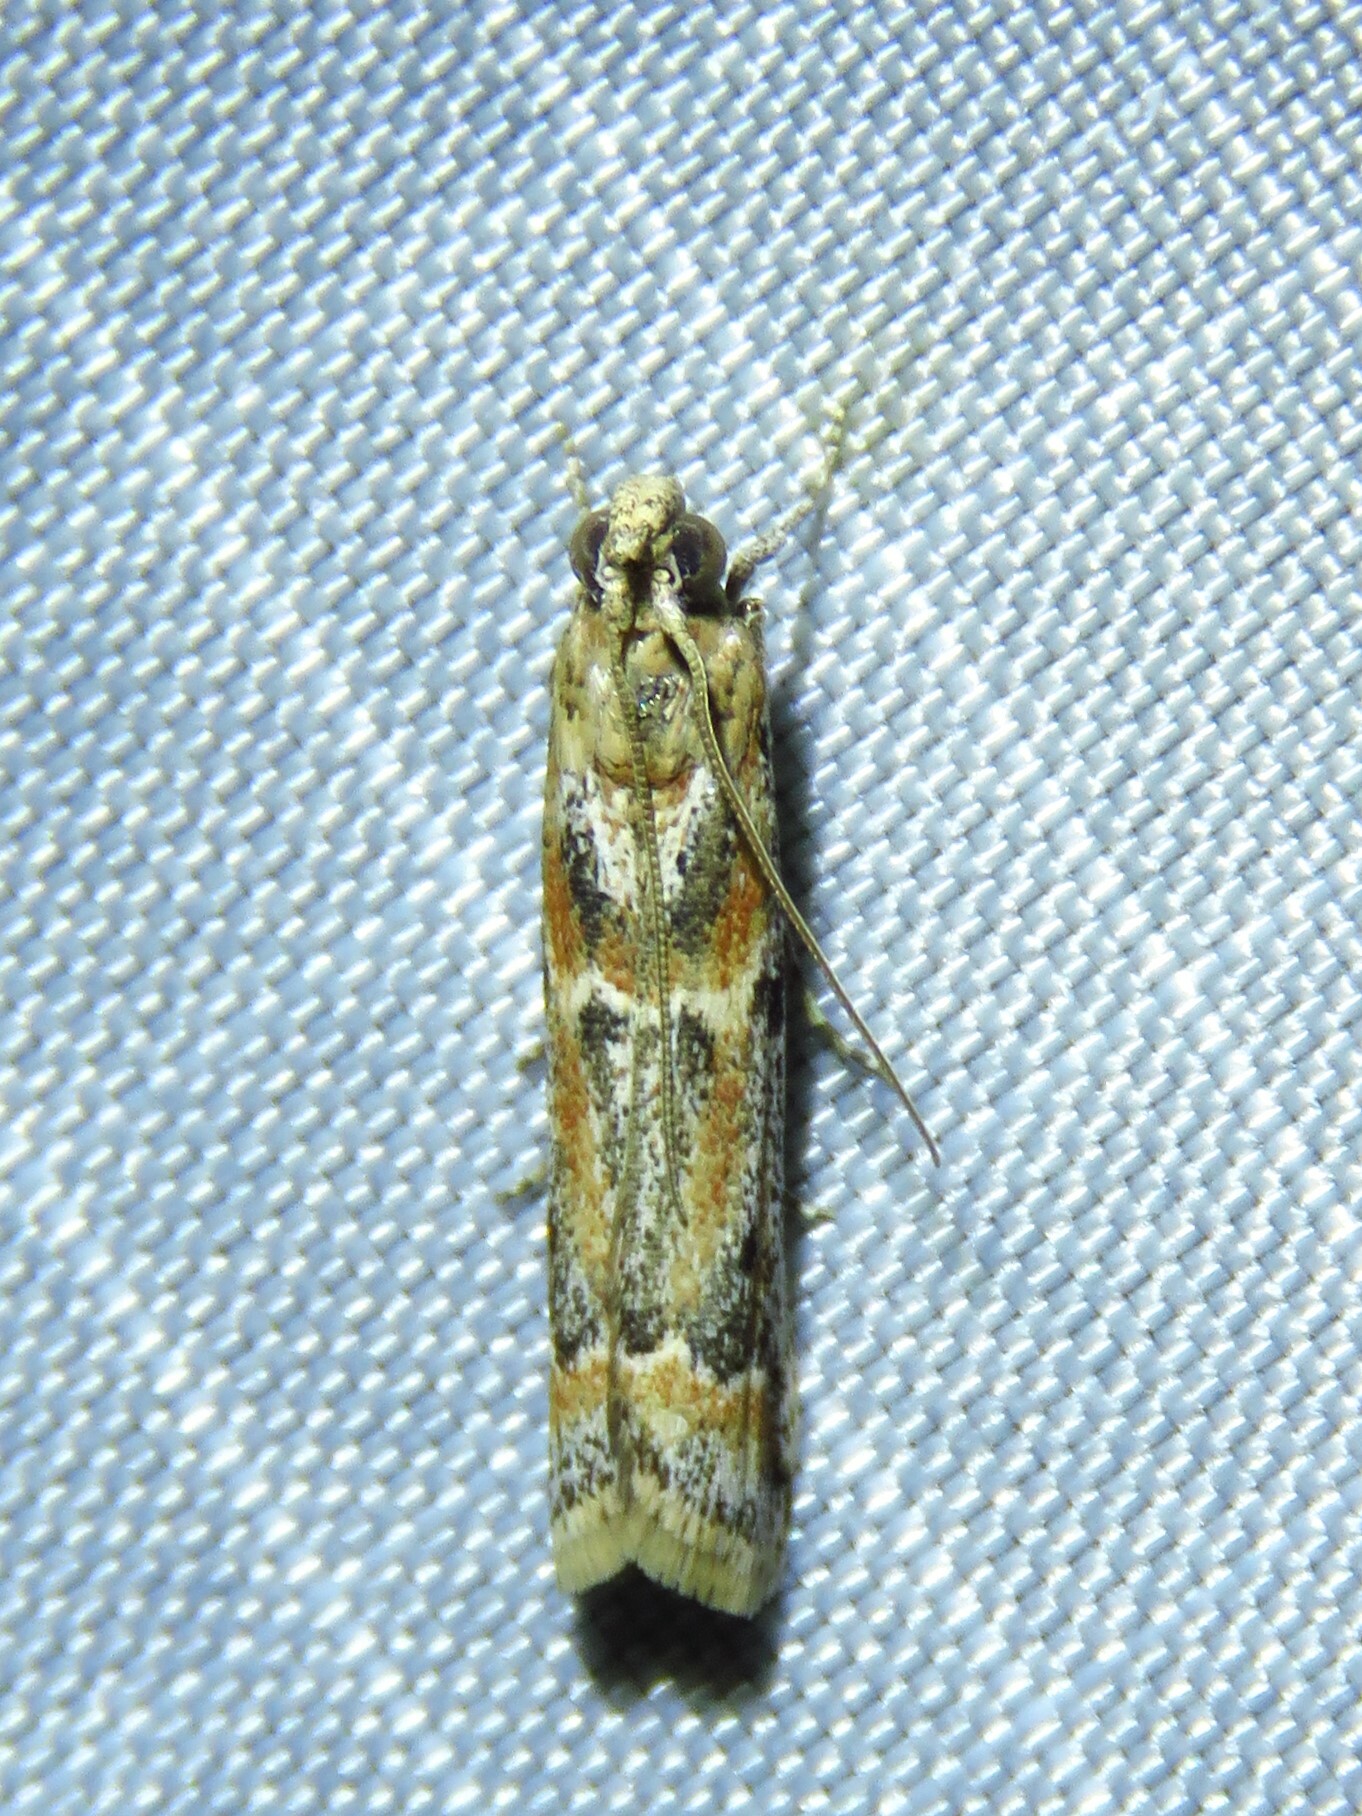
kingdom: Animalia
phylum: Arthropoda
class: Insecta
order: Lepidoptera
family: Pyralidae
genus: Ancylosis
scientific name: Ancylosis morrisonella
